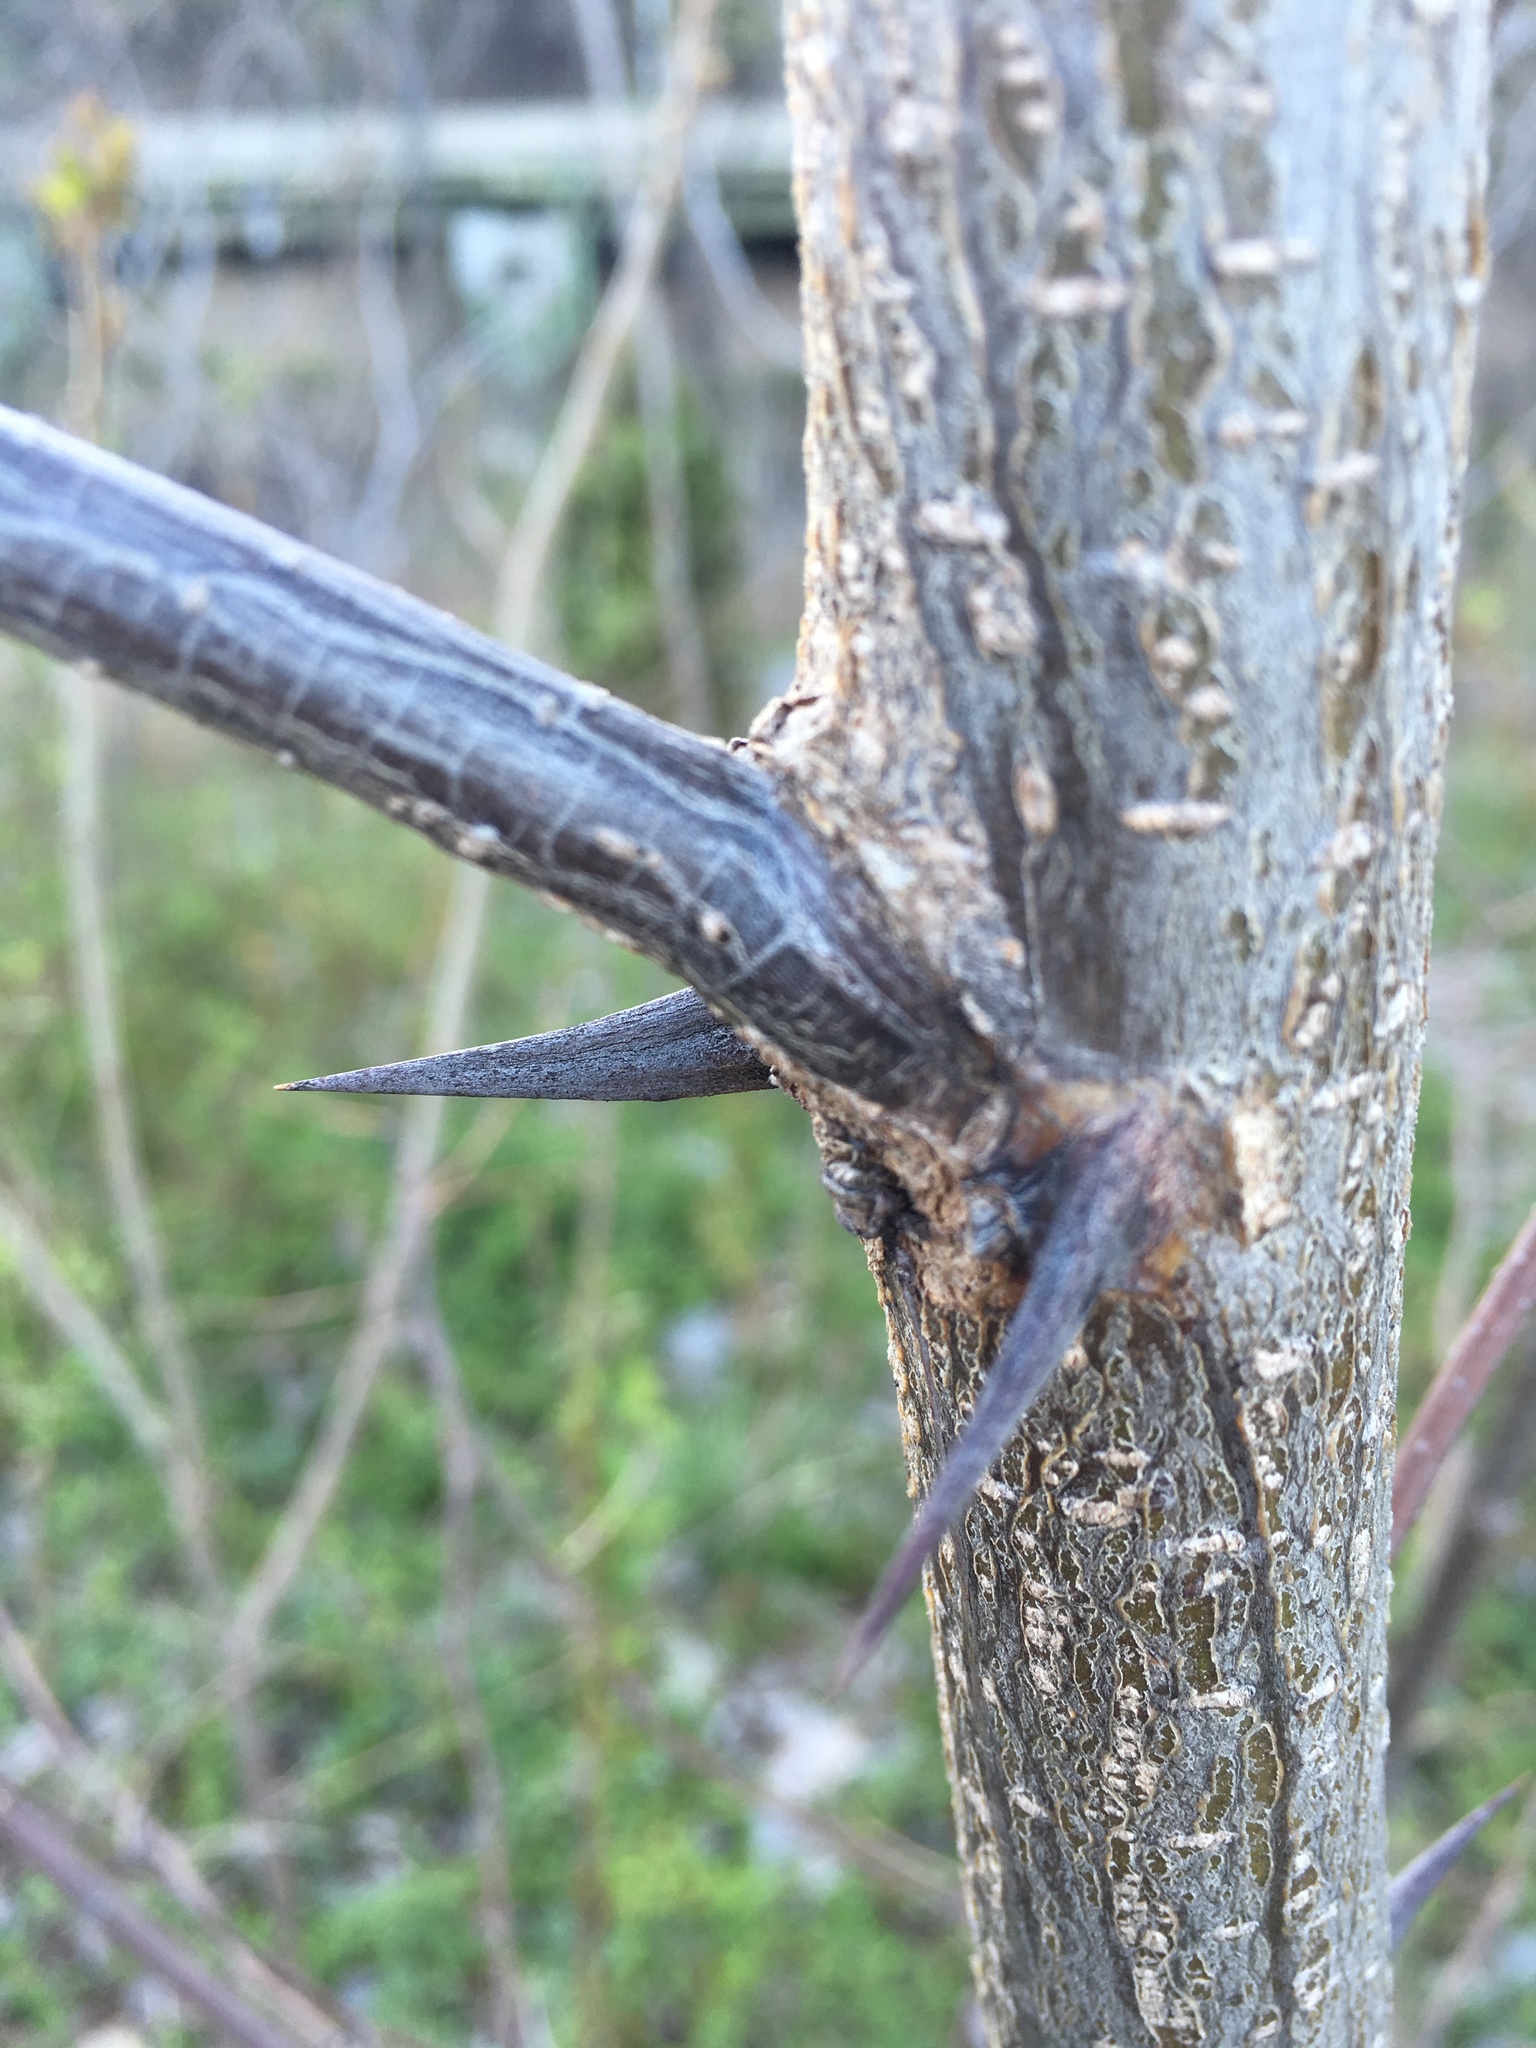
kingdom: Plantae
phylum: Tracheophyta
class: Magnoliopsida
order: Fabales
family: Fabaceae
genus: Robinia
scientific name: Robinia pseudoacacia
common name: Black locust
